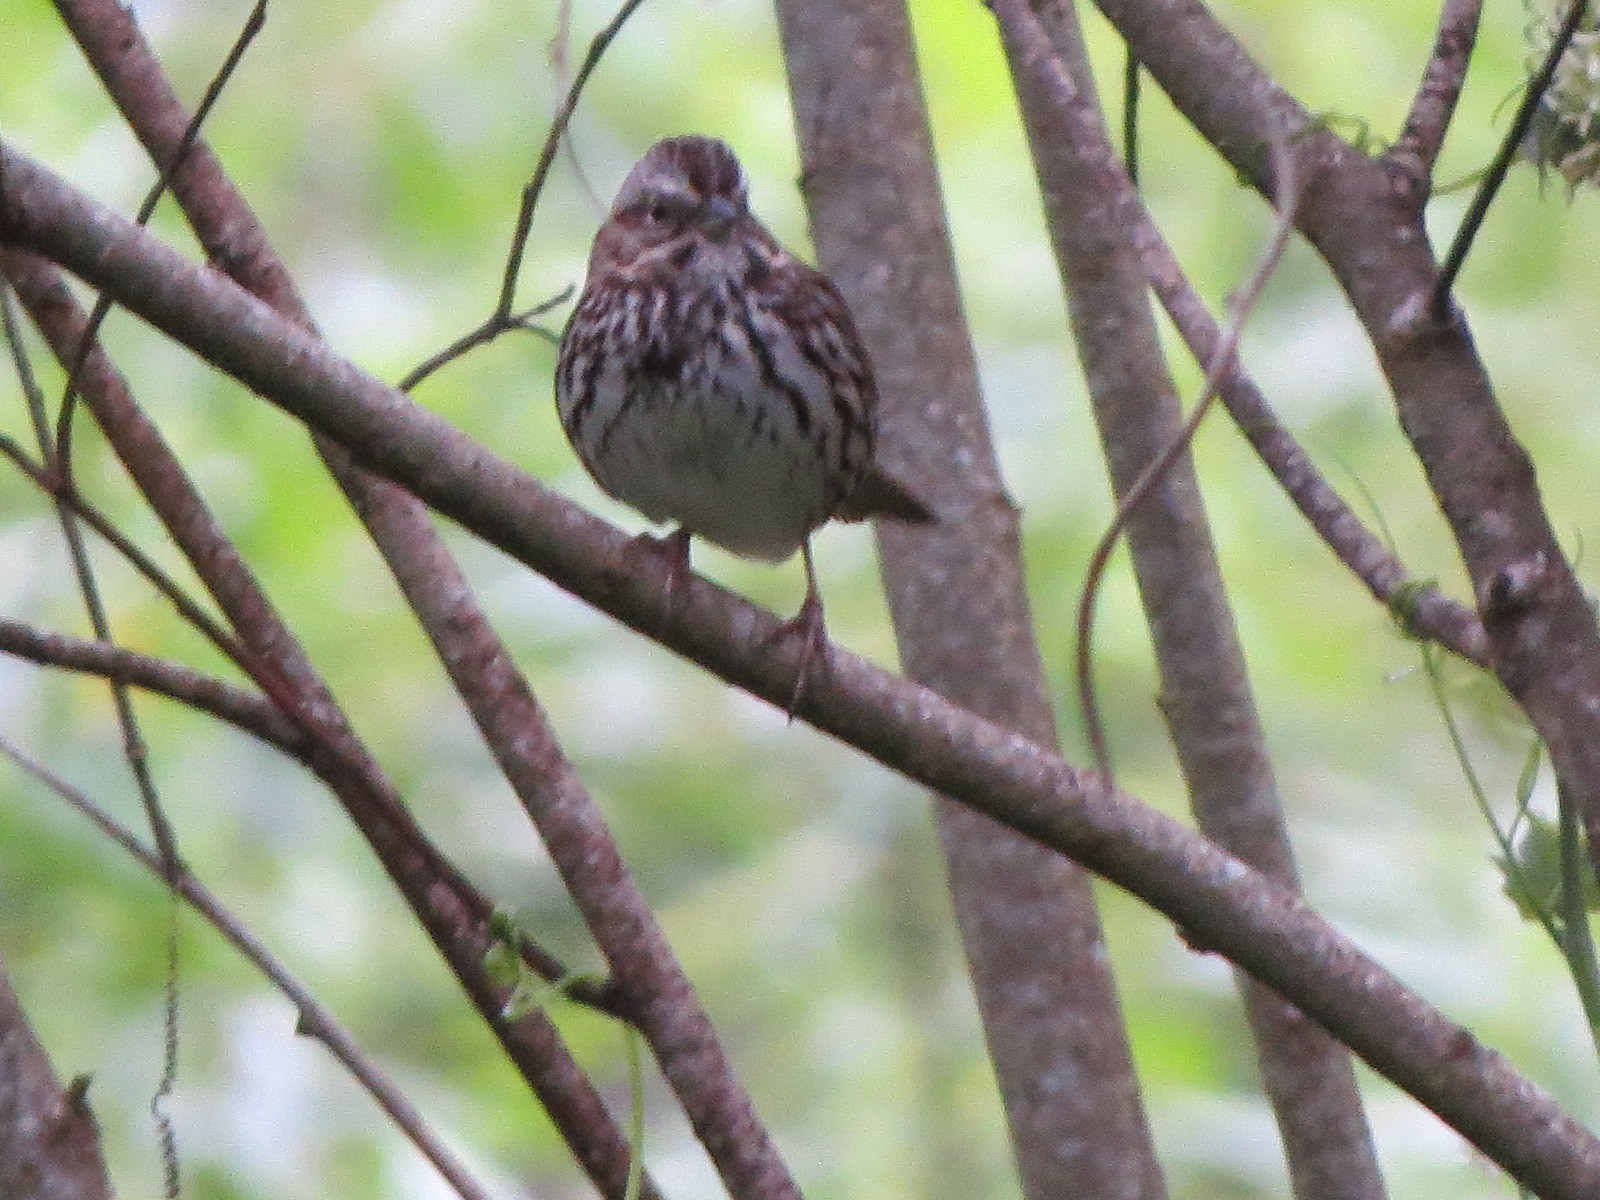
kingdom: Animalia
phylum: Chordata
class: Aves
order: Passeriformes
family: Passerellidae
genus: Melospiza
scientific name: Melospiza melodia
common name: Song sparrow
